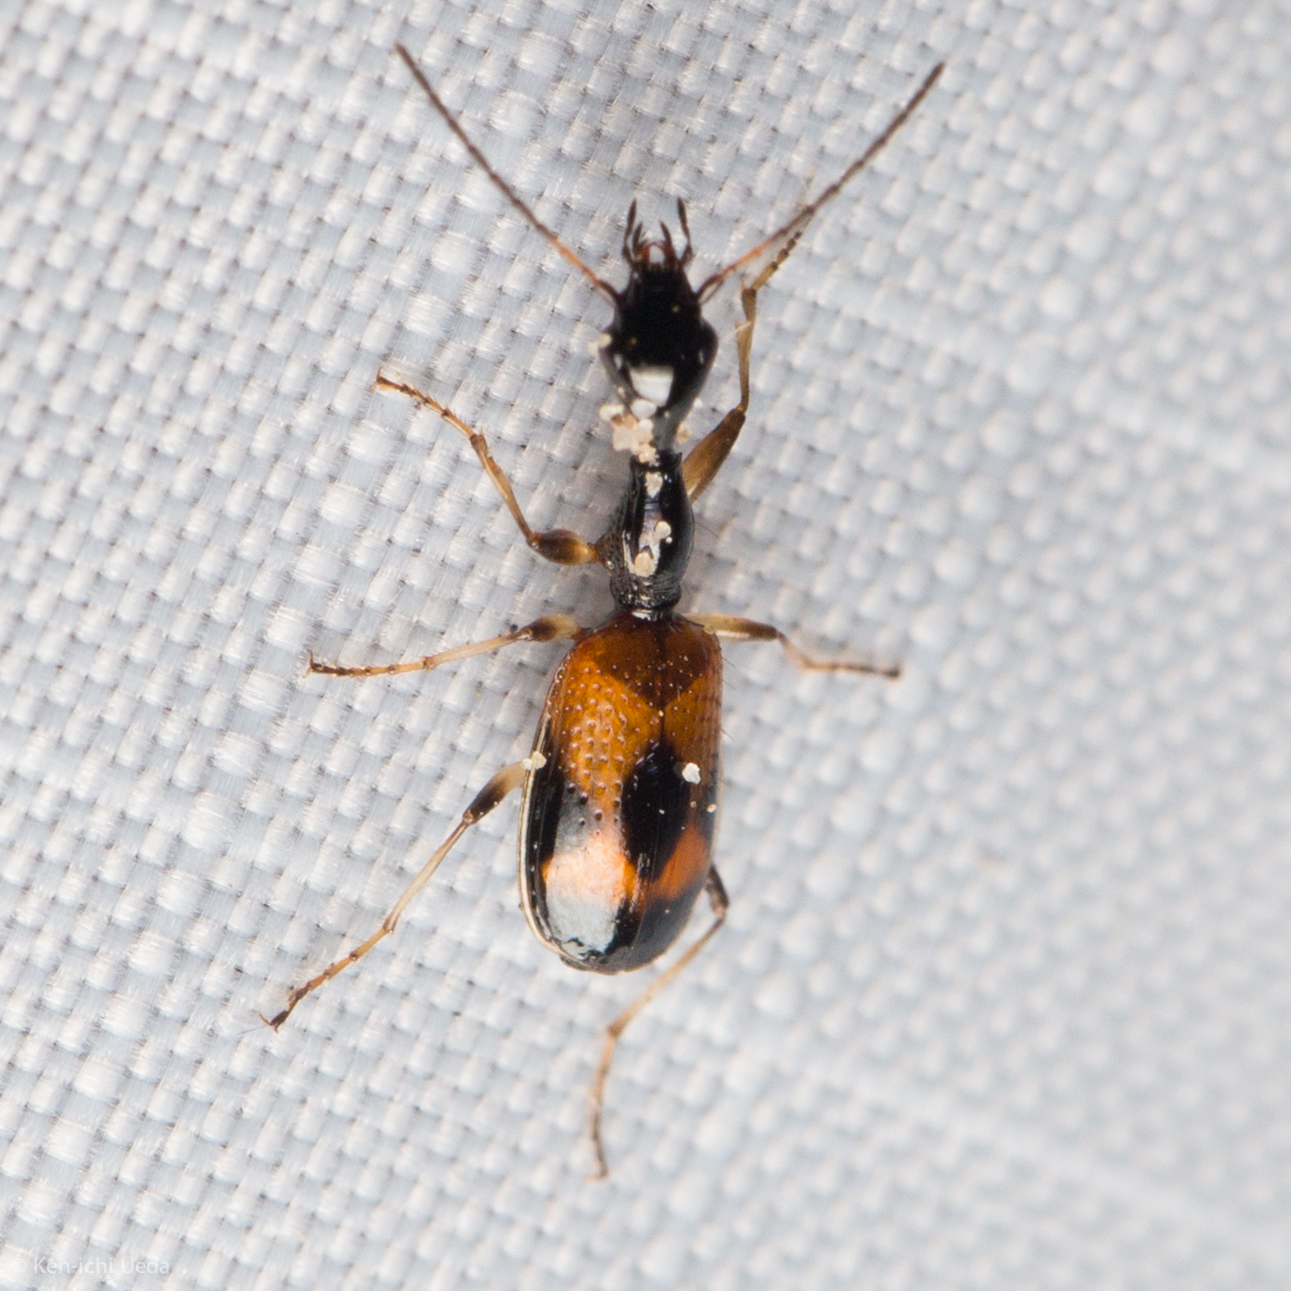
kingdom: Animalia
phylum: Arthropoda
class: Insecta
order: Coleoptera
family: Carabidae
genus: Colliuris
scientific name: Colliuris pensylvanica
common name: Long-necked ground beetle
